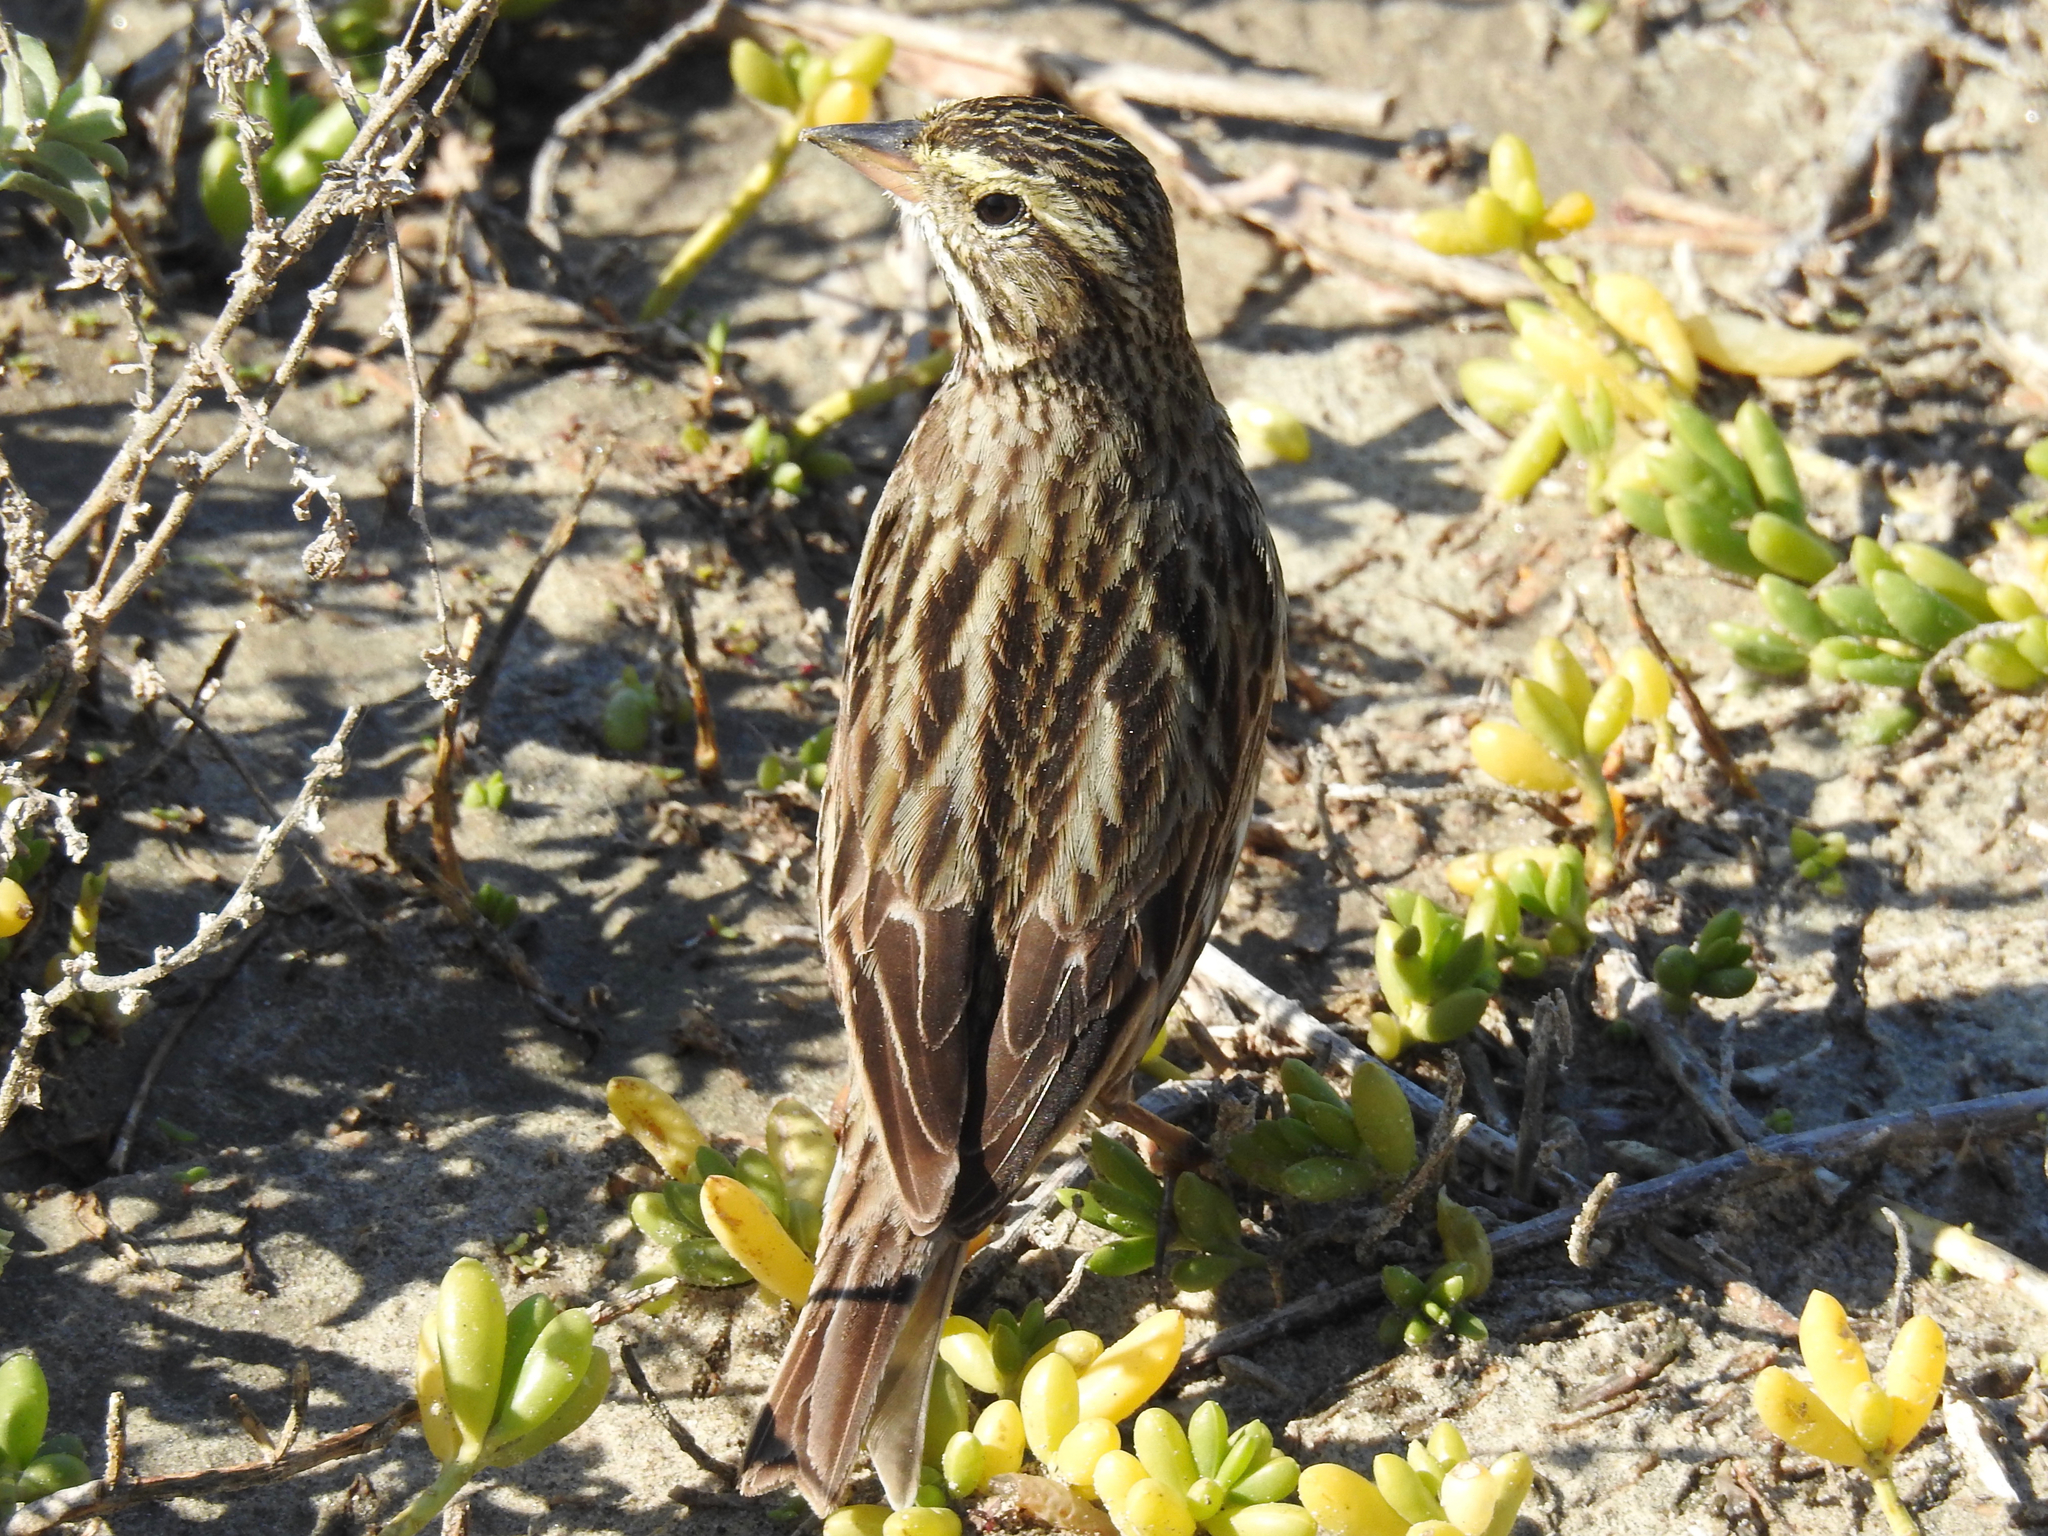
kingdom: Animalia
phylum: Chordata
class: Aves
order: Passeriformes
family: Passerellidae
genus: Passerculus
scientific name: Passerculus sandwichensis
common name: Savannah sparrow
